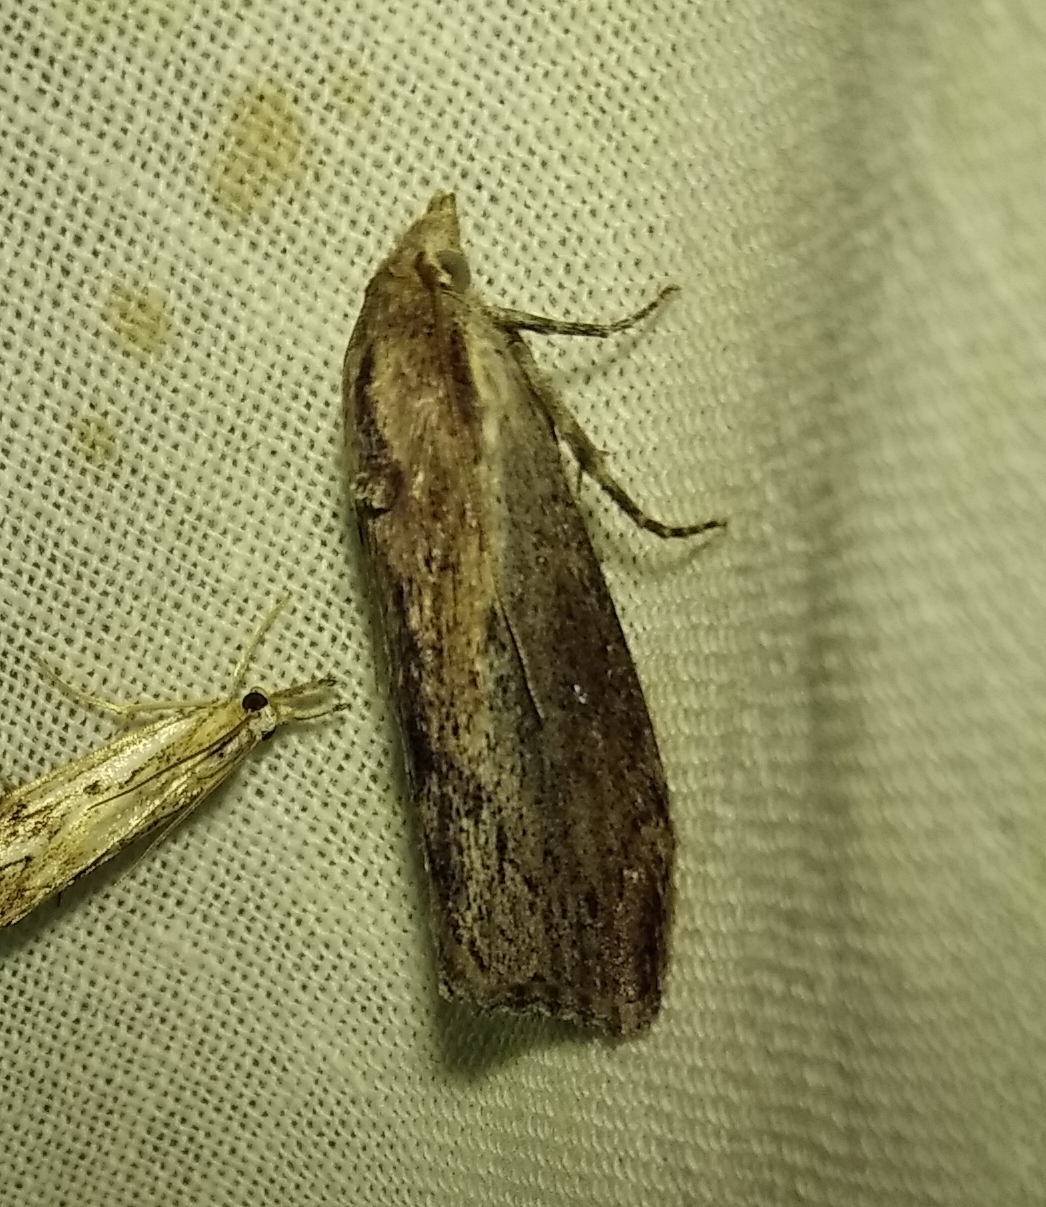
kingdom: Animalia
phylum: Arthropoda
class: Insecta
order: Lepidoptera
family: Pyralidae
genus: Galleria
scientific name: Galleria mellonella
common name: Greater wax moth
